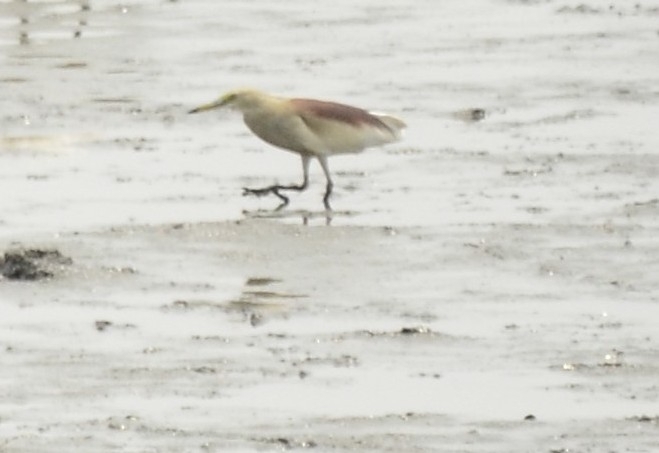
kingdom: Animalia
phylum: Chordata
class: Aves
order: Pelecaniformes
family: Ardeidae
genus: Ardeola
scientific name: Ardeola grayii
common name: Indian pond heron
